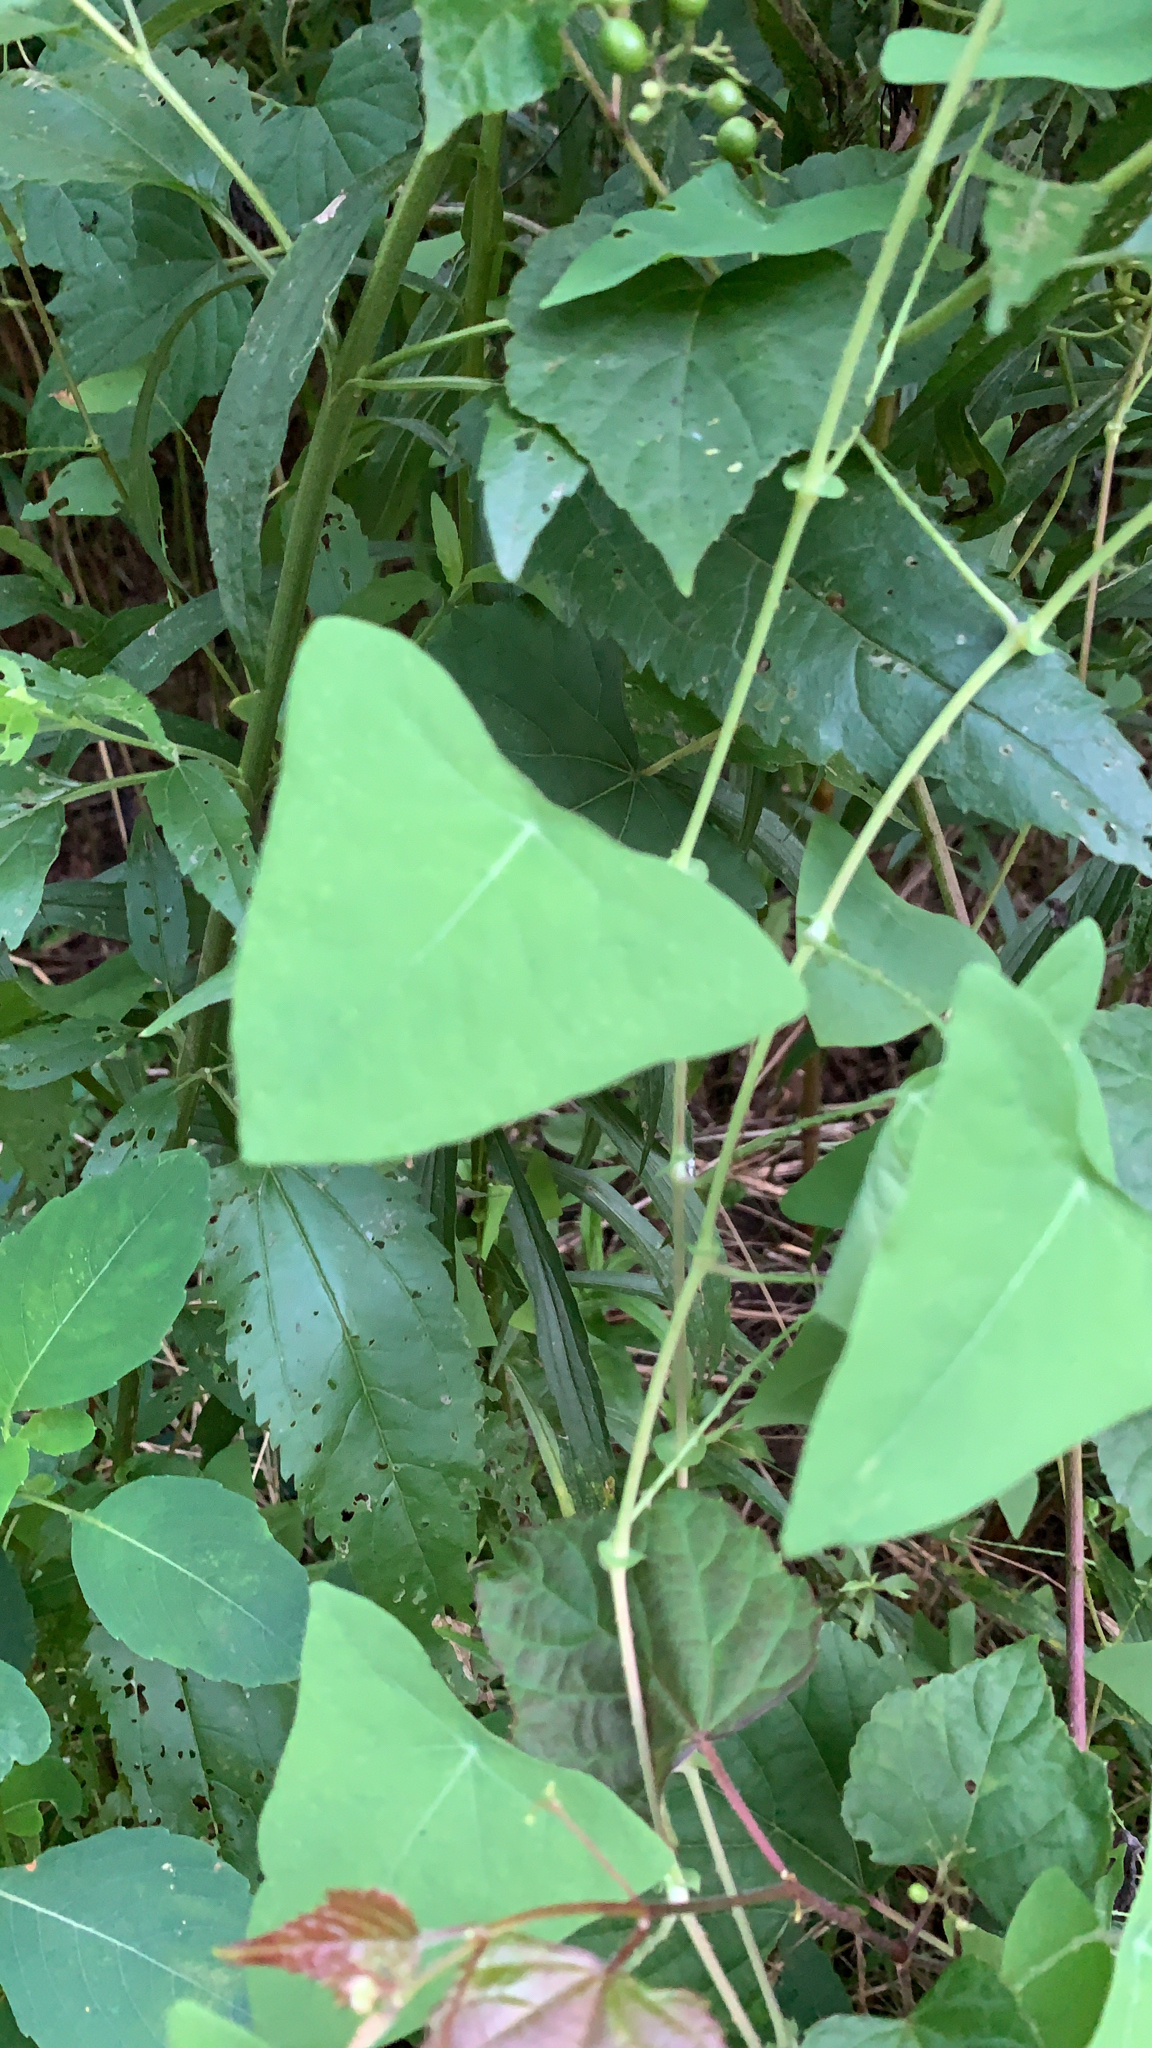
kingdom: Plantae
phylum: Tracheophyta
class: Magnoliopsida
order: Caryophyllales
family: Polygonaceae
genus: Persicaria
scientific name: Persicaria perfoliata
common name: Asiatic tearthumb
